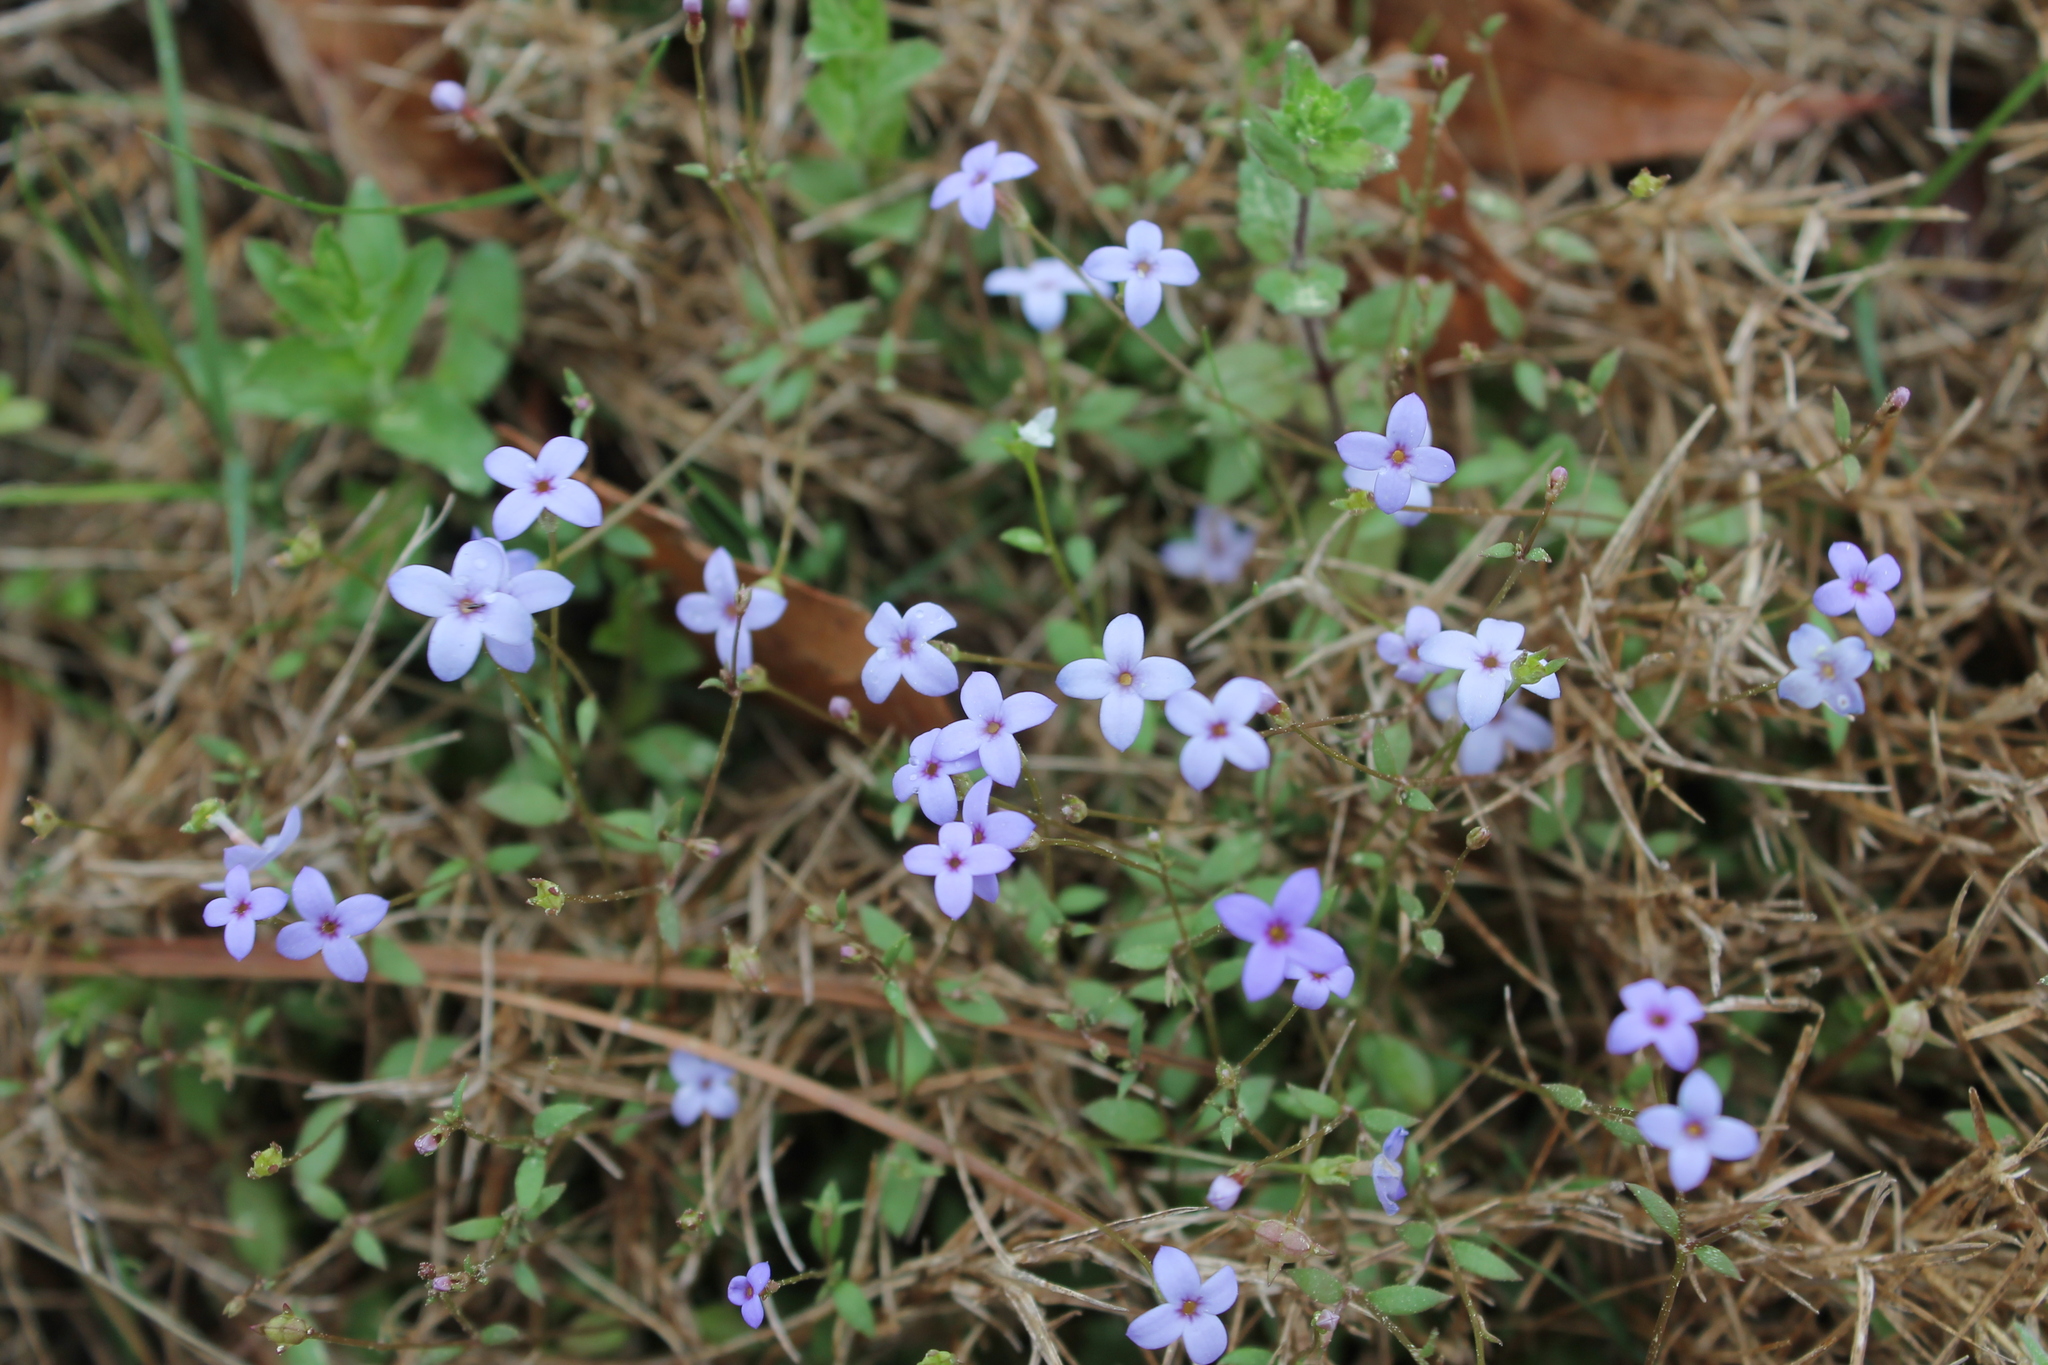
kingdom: Plantae
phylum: Tracheophyta
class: Magnoliopsida
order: Gentianales
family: Rubiaceae
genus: Houstonia
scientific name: Houstonia pusilla
